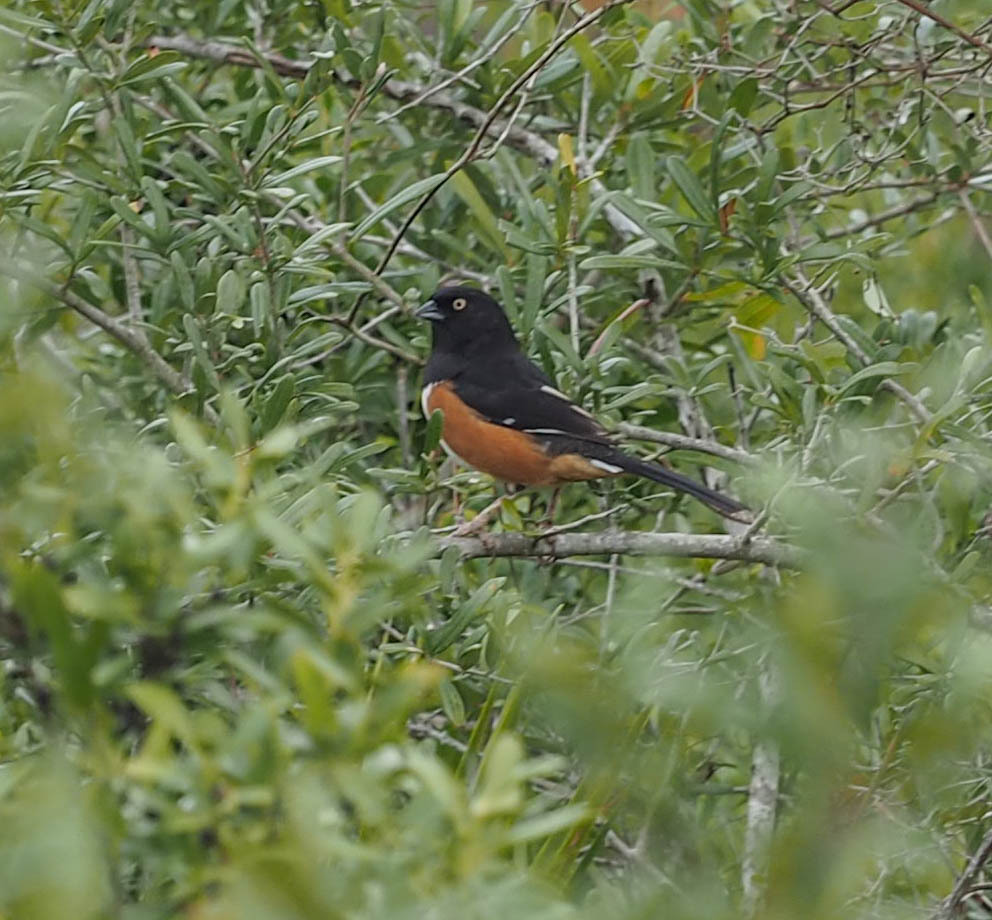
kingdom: Animalia
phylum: Chordata
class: Aves
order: Passeriformes
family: Passerellidae
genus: Pipilo
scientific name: Pipilo erythrophthalmus
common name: Eastern towhee
